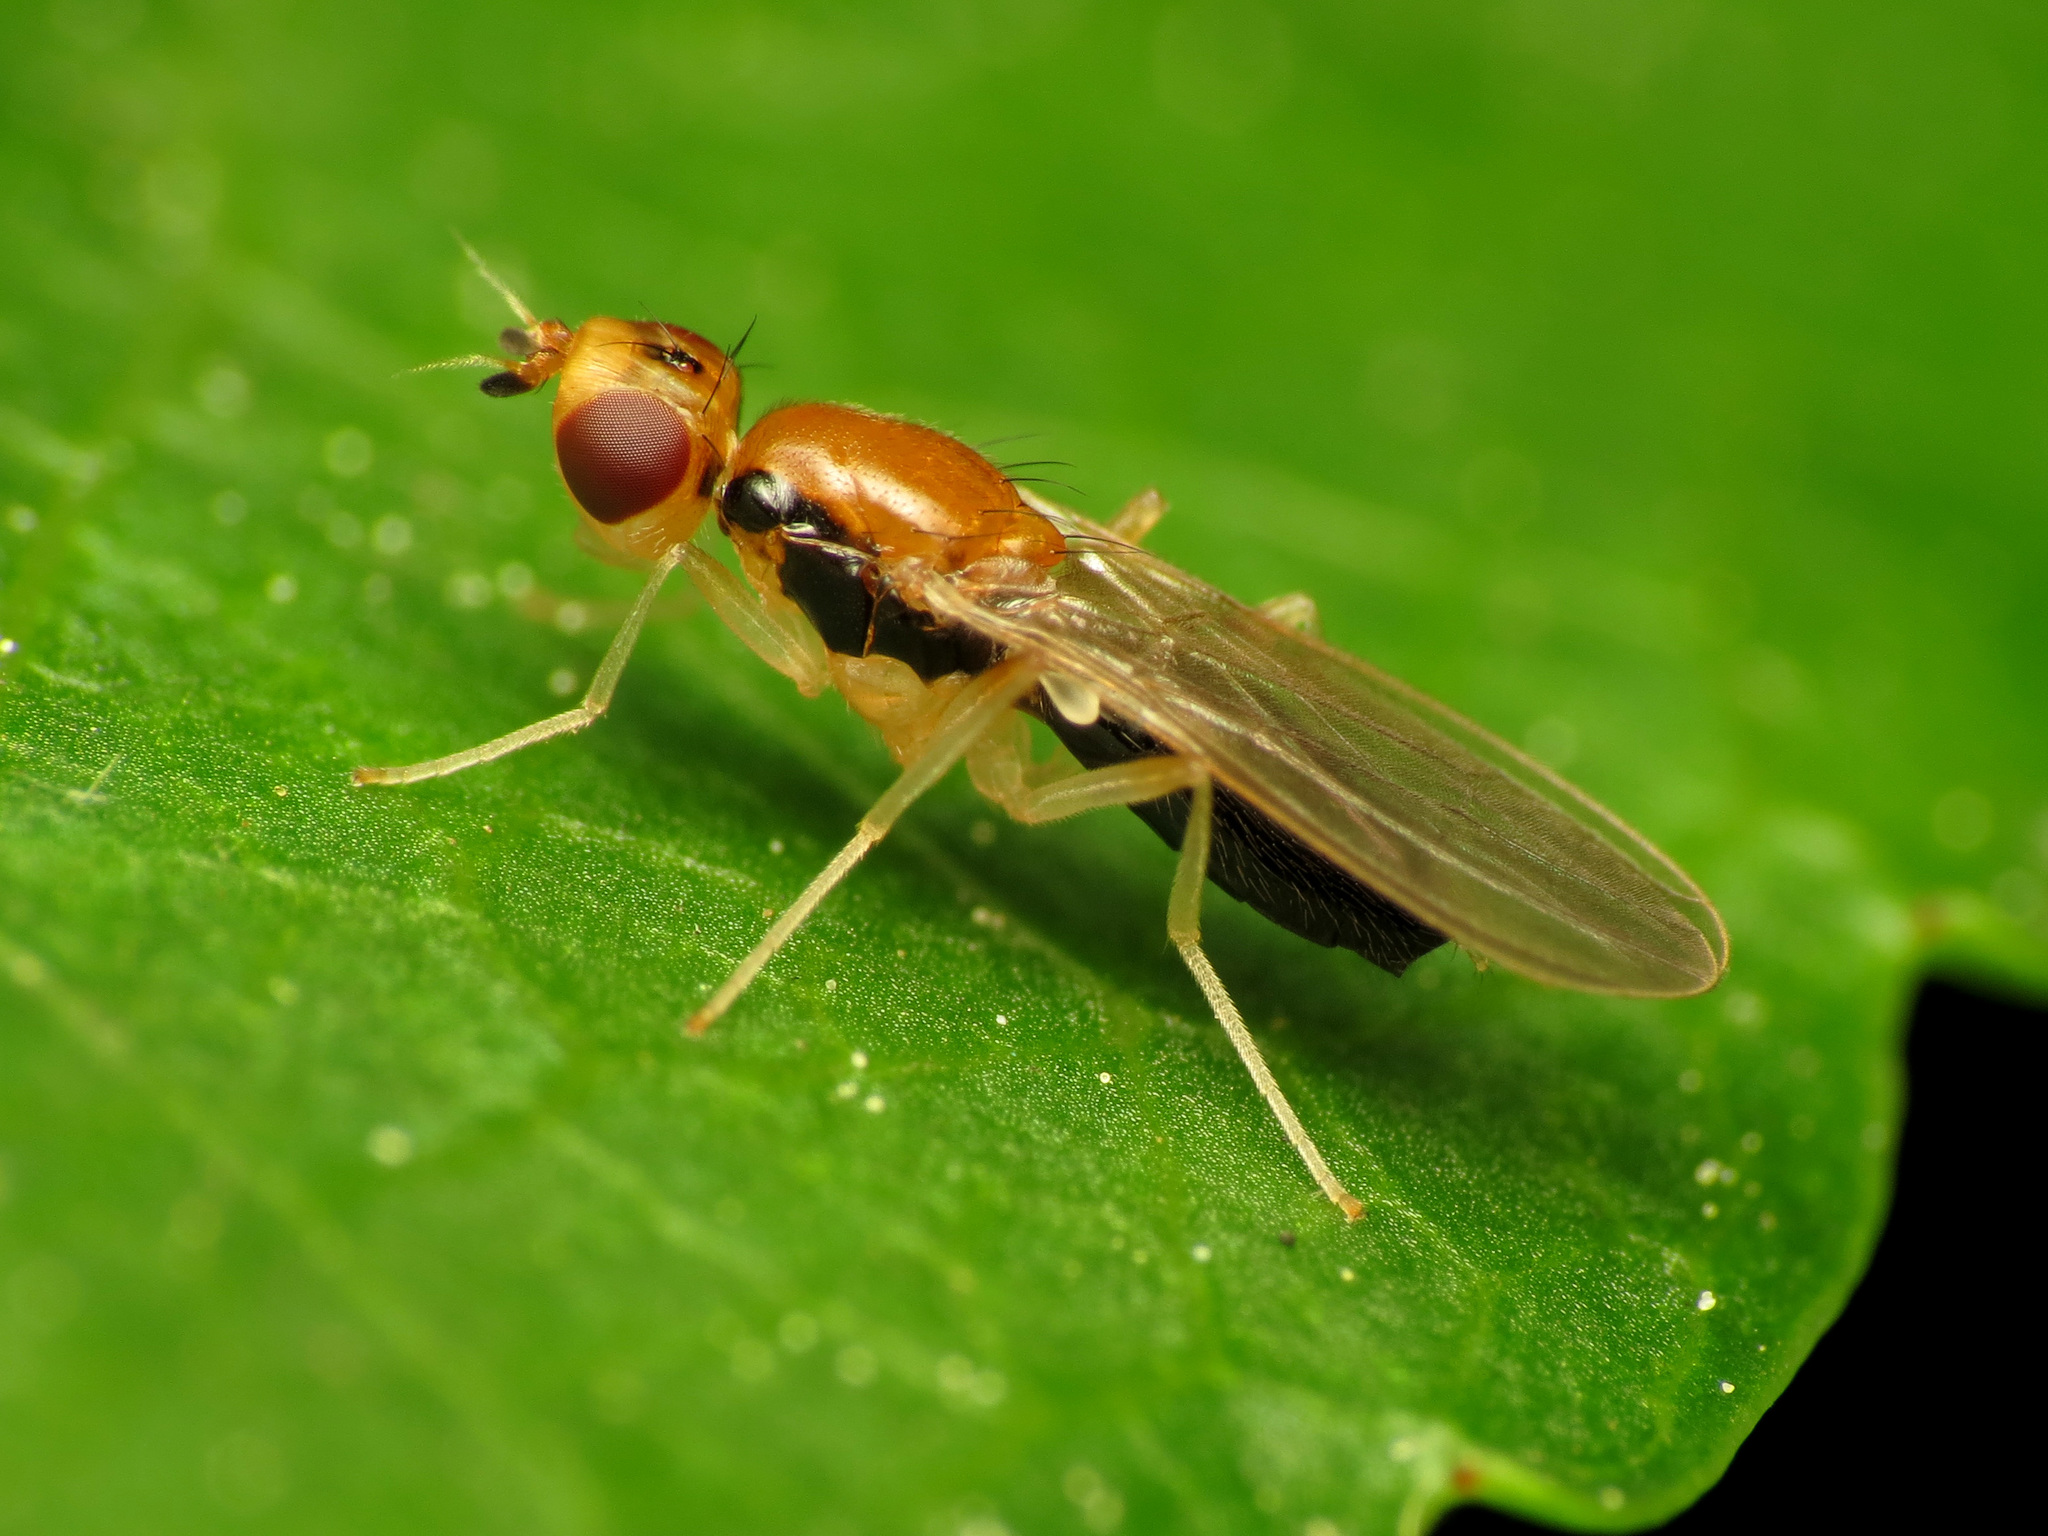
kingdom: Animalia
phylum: Arthropoda
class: Insecta
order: Diptera
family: Psilidae
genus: Psila
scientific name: Psila lateralis
